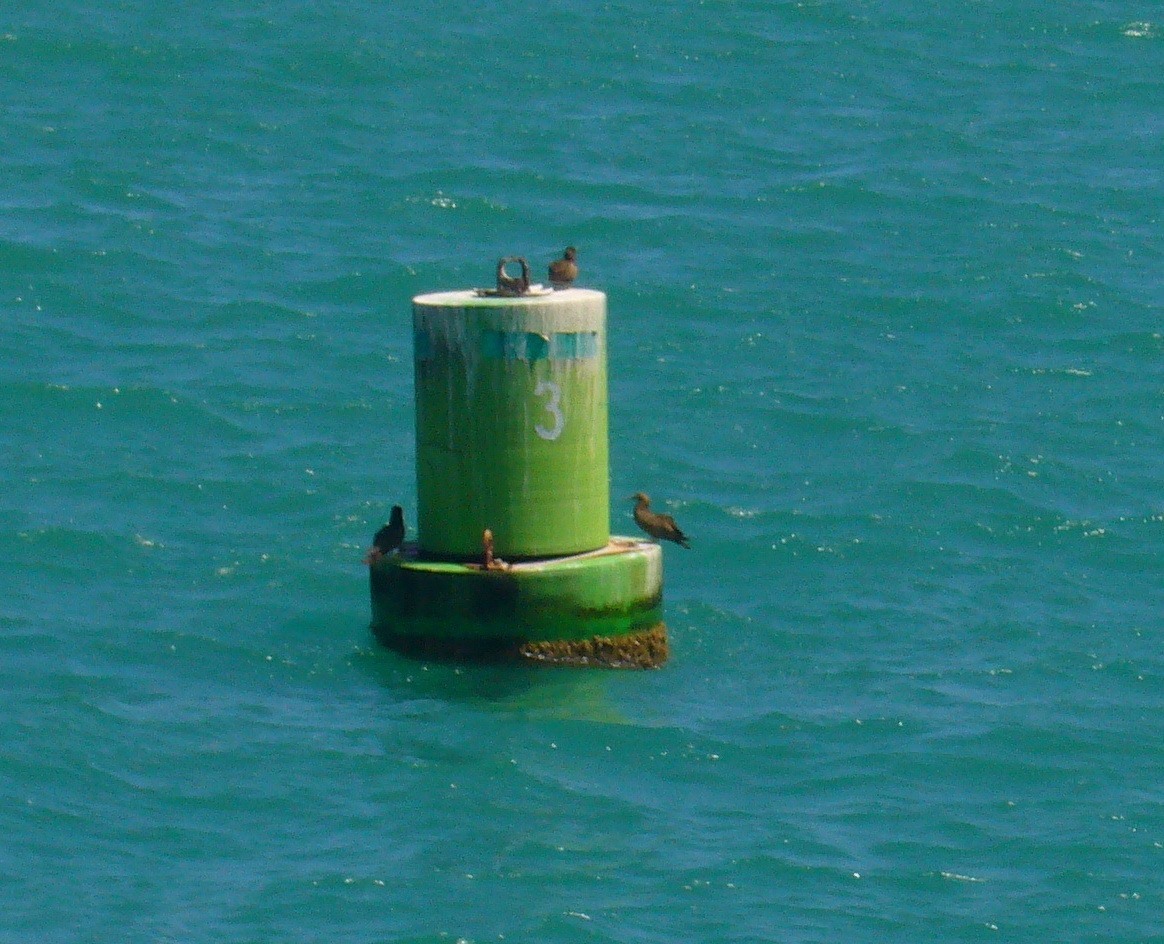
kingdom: Animalia
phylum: Chordata
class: Aves
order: Suliformes
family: Sulidae
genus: Sula
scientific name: Sula leucogaster
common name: Brown booby
